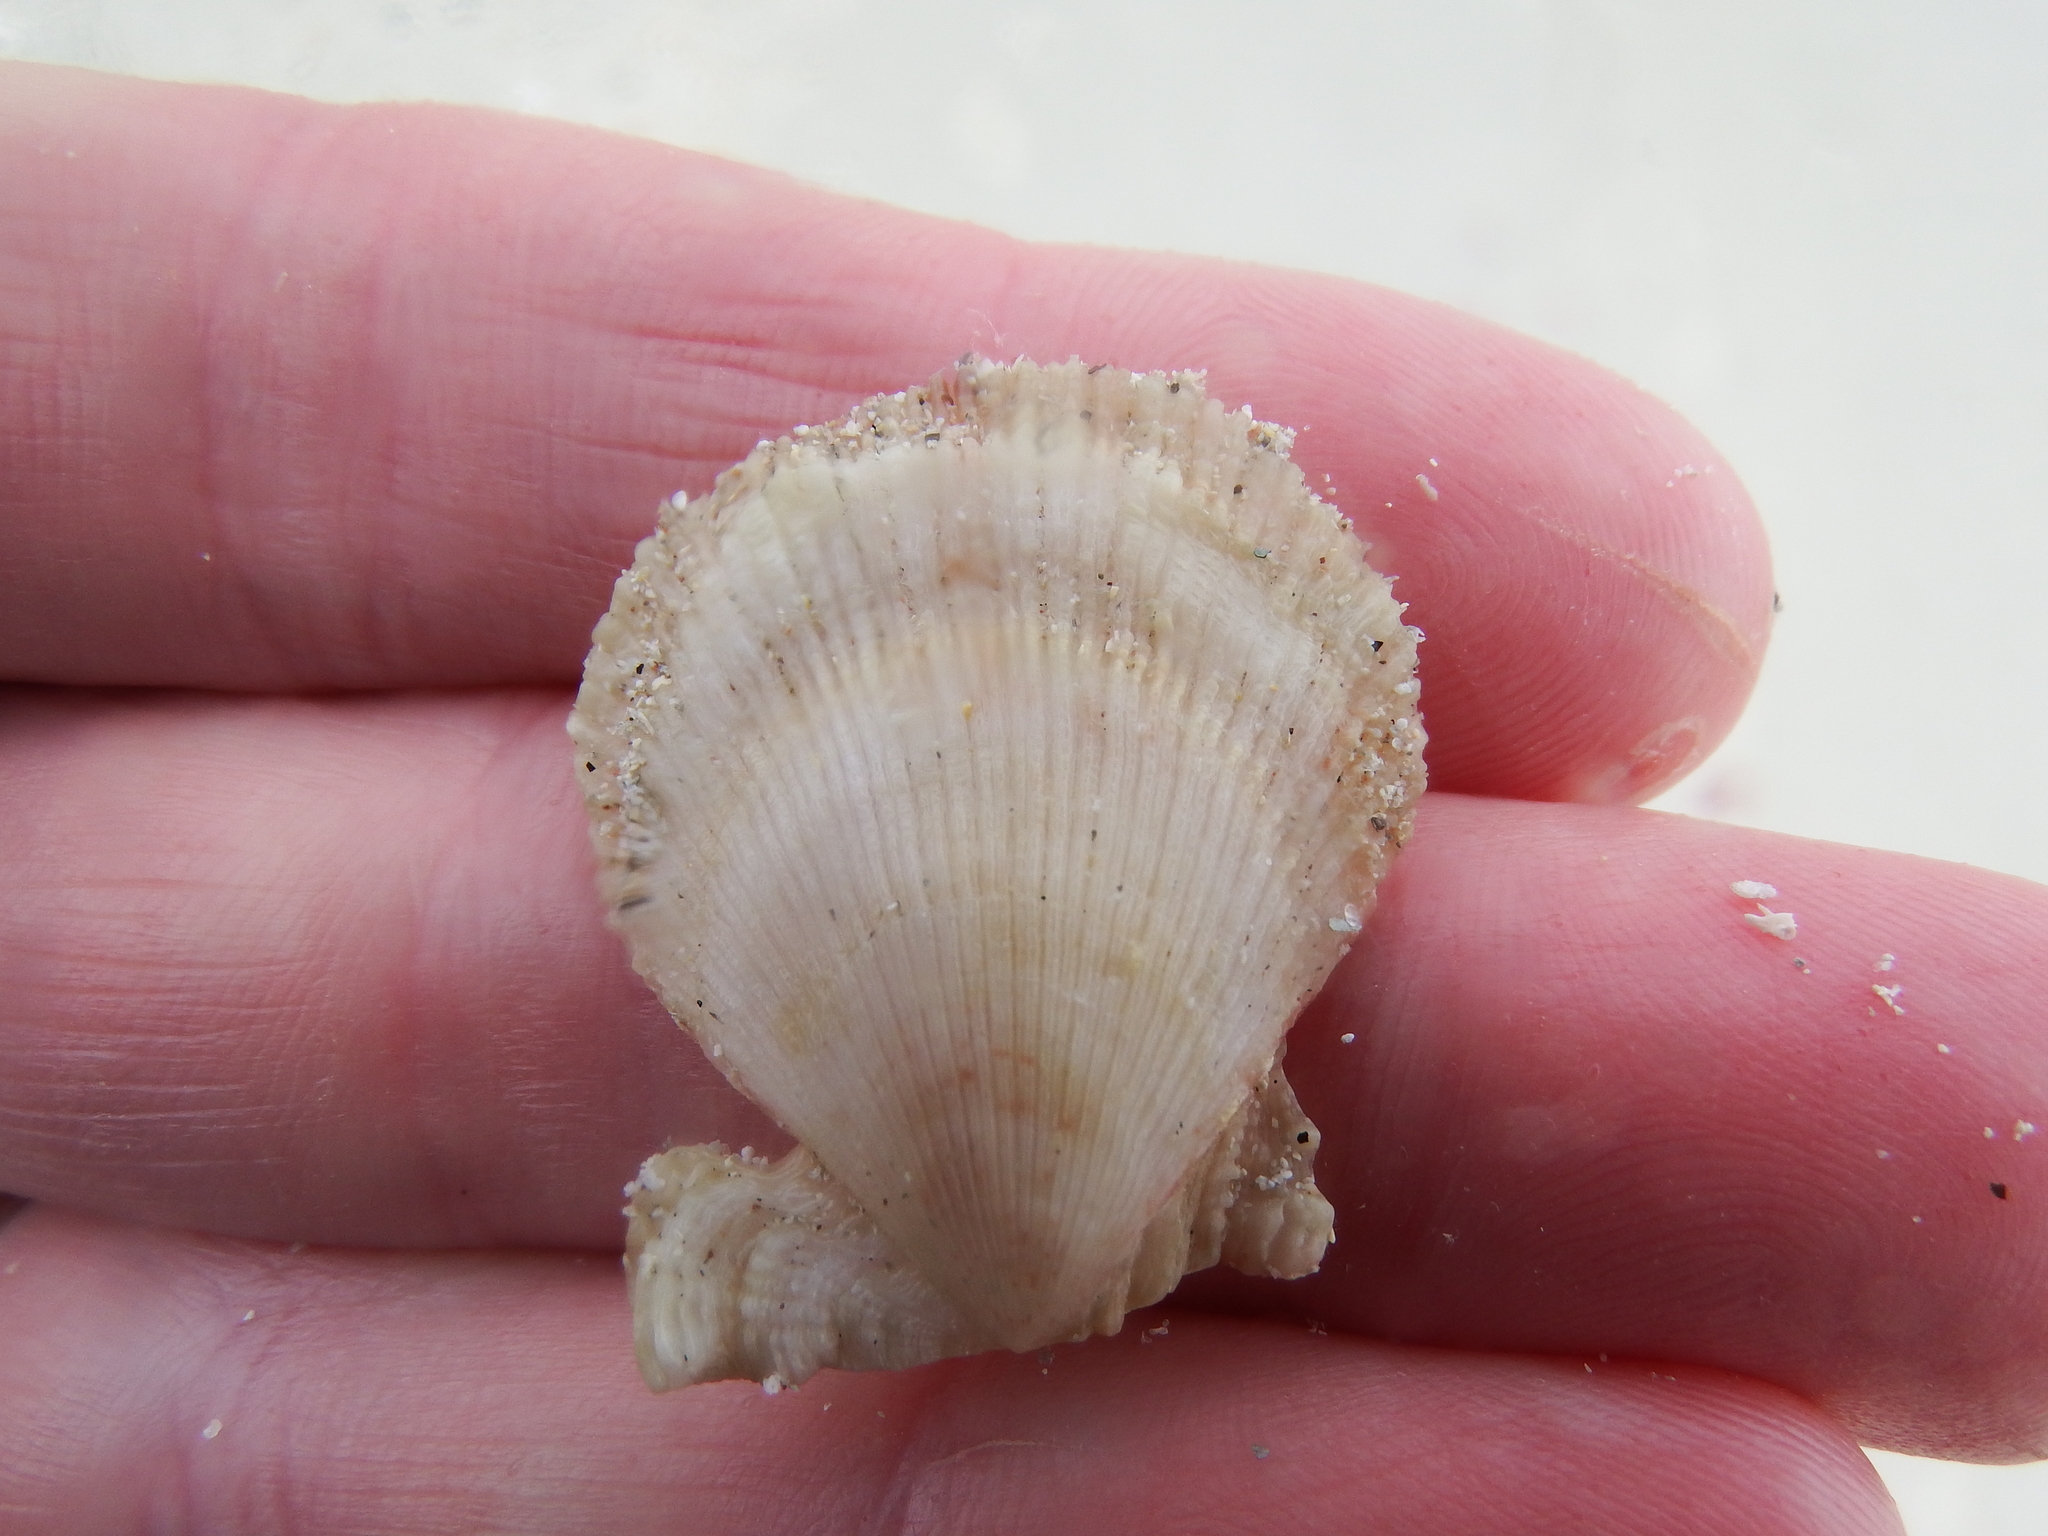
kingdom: Animalia
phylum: Mollusca
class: Bivalvia
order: Pectinida
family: Pectinidae
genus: Talochlamys
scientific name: Talochlamys pusio
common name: Hunchback scallop
